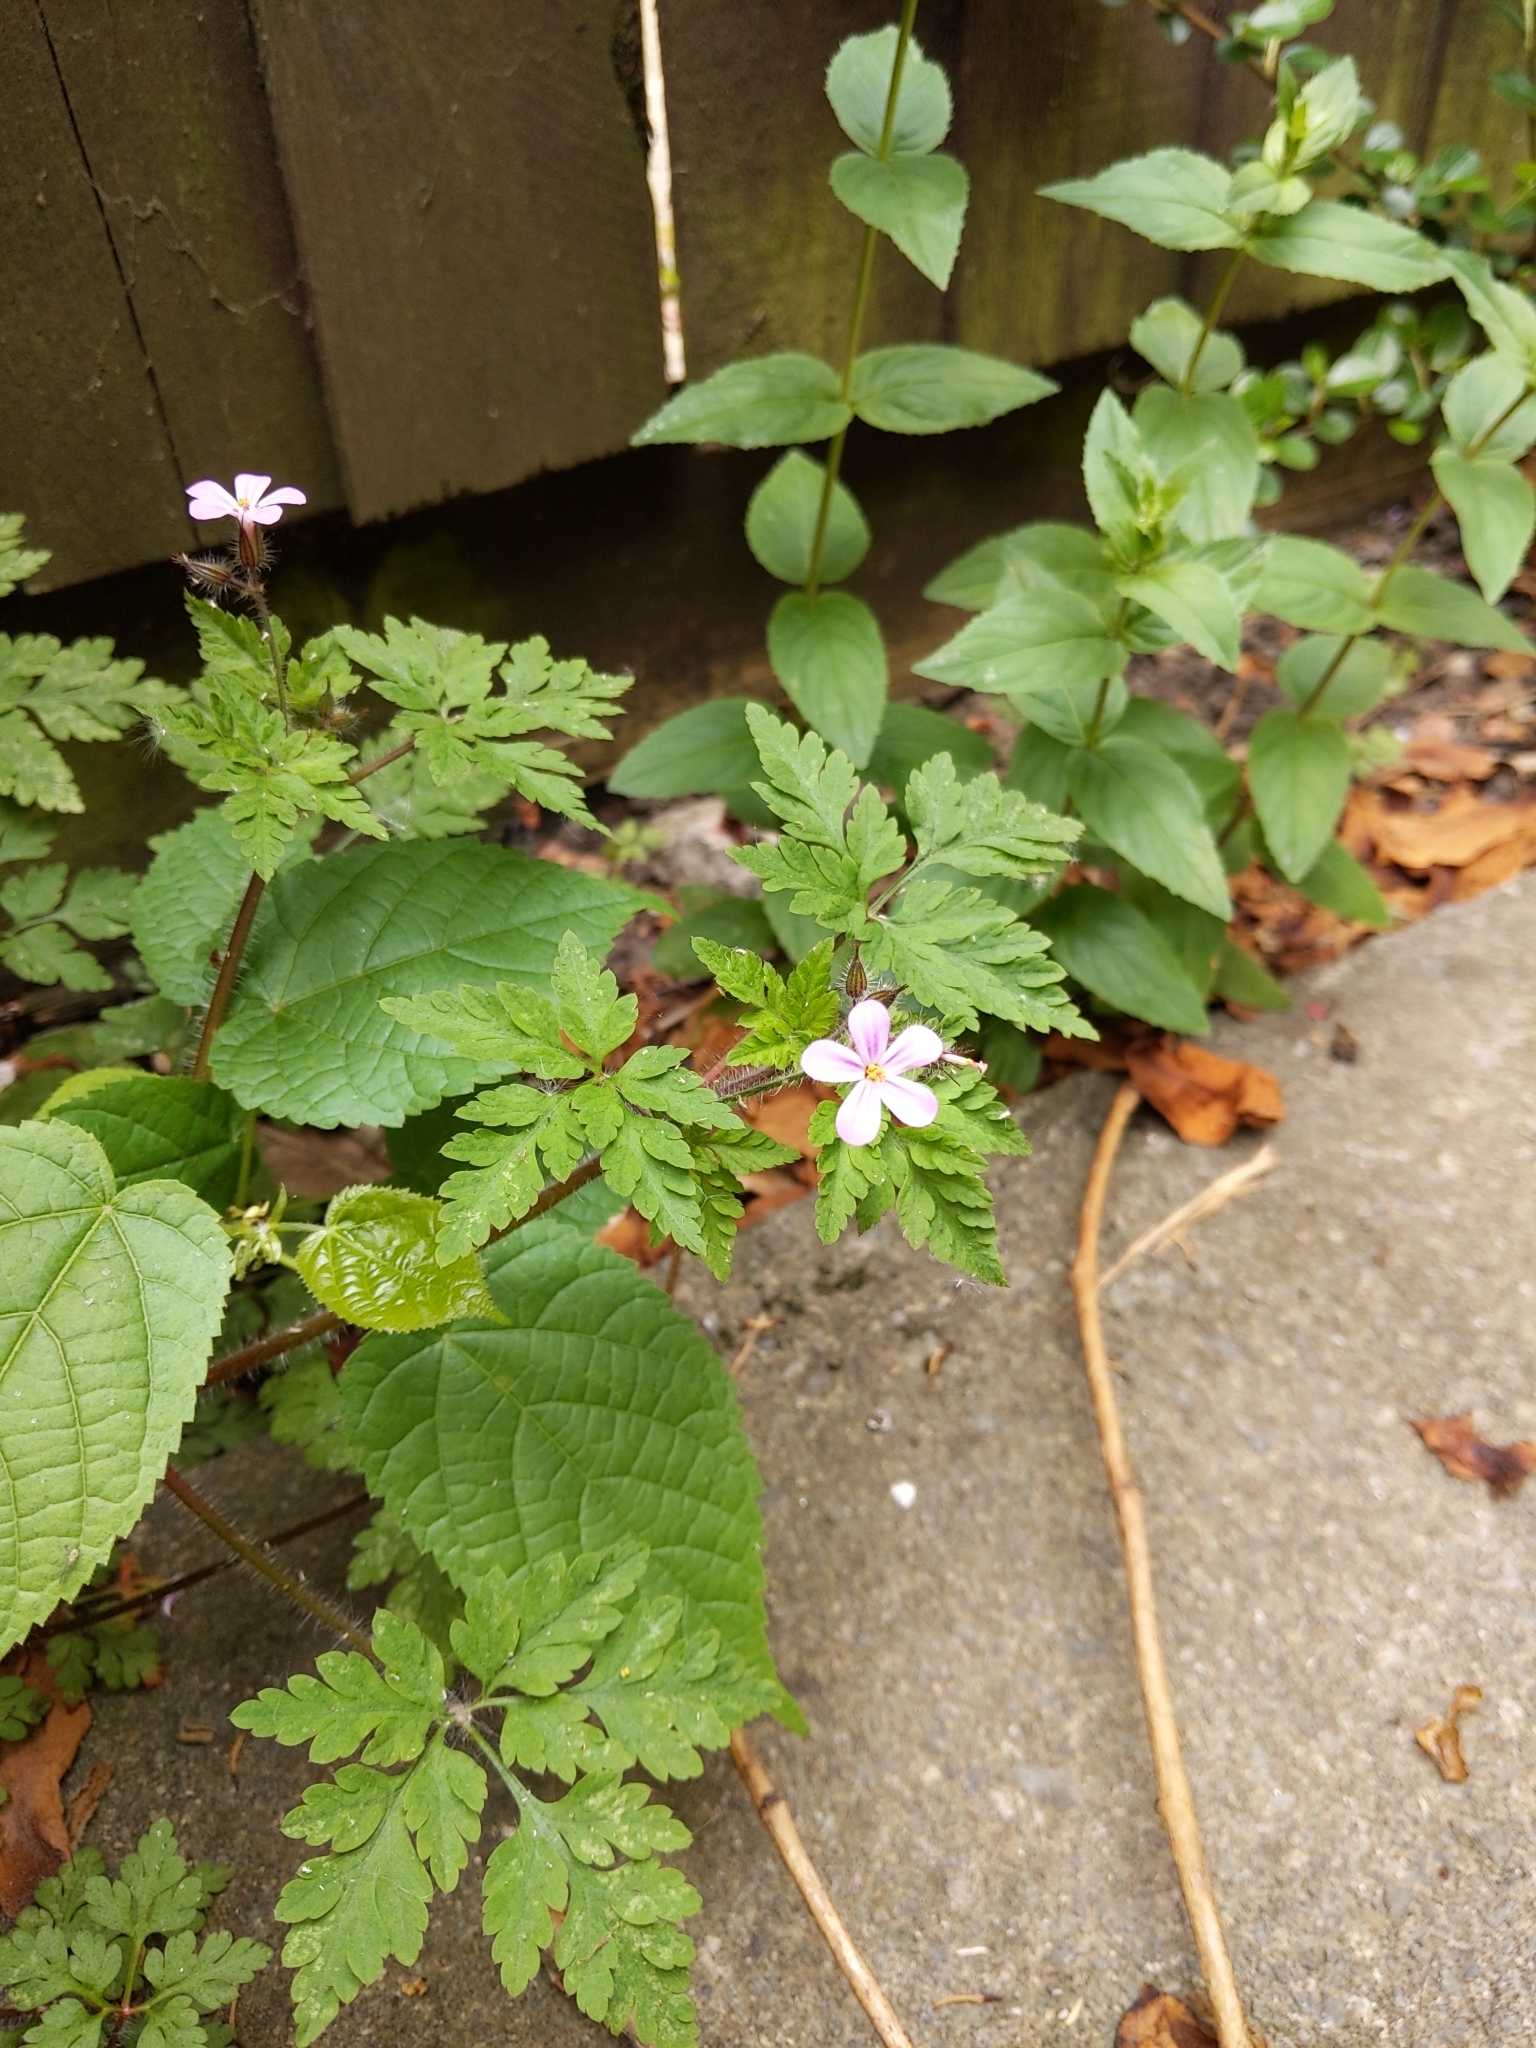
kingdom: Plantae
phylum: Tracheophyta
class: Magnoliopsida
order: Geraniales
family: Geraniaceae
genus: Geranium
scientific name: Geranium robertianum
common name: Herb-robert
